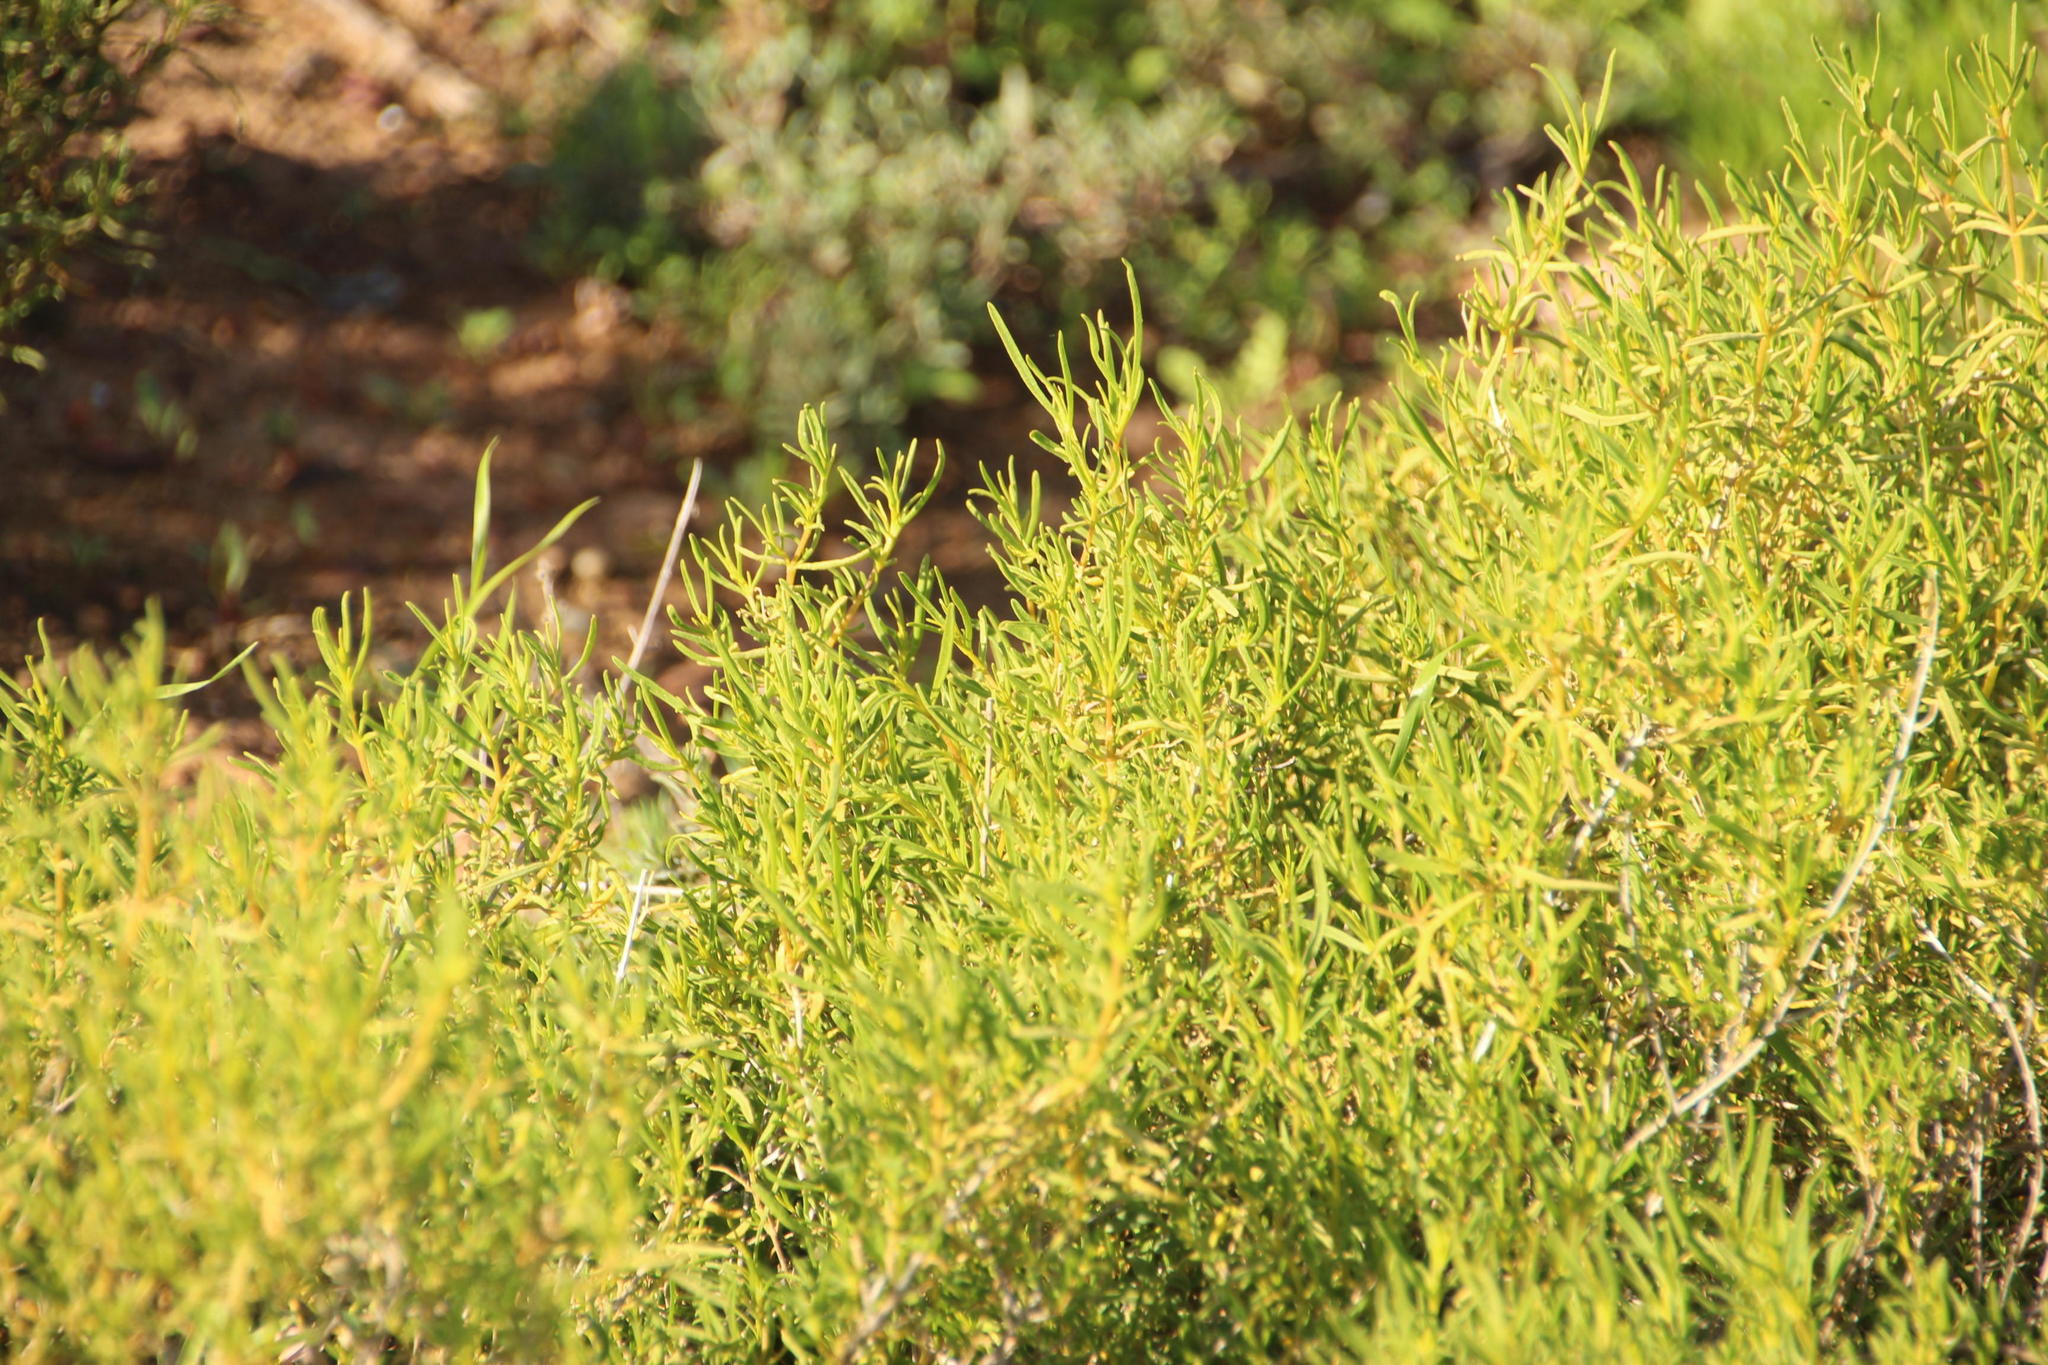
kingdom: Plantae
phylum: Tracheophyta
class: Magnoliopsida
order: Caryophyllales
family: Aizoaceae
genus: Aizoon
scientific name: Aizoon africanum
